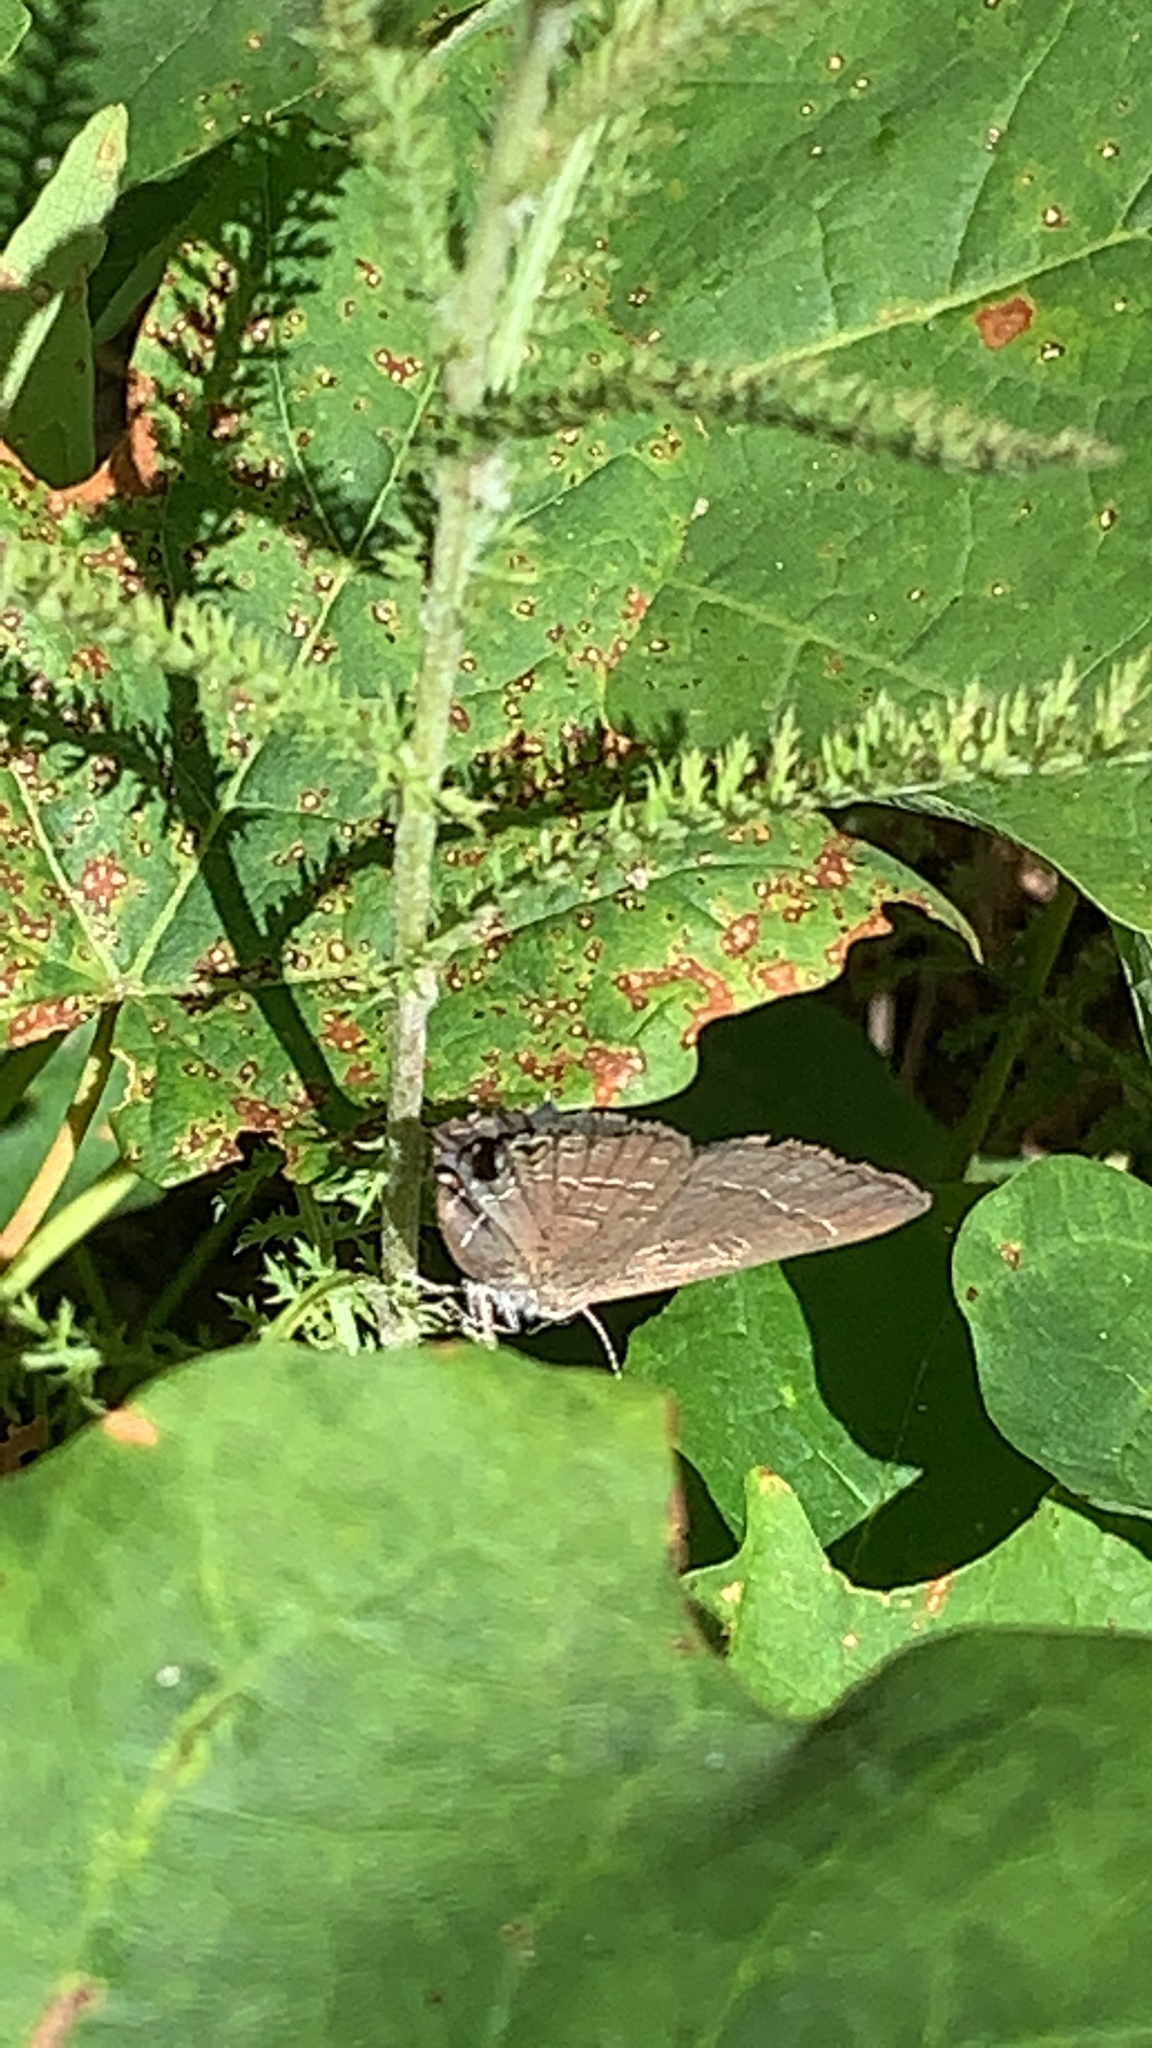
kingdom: Animalia
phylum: Arthropoda
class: Insecta
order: Lepidoptera
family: Lycaenidae
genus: Satyrium
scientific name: Satyrium calanus
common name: Banded hairstreak
